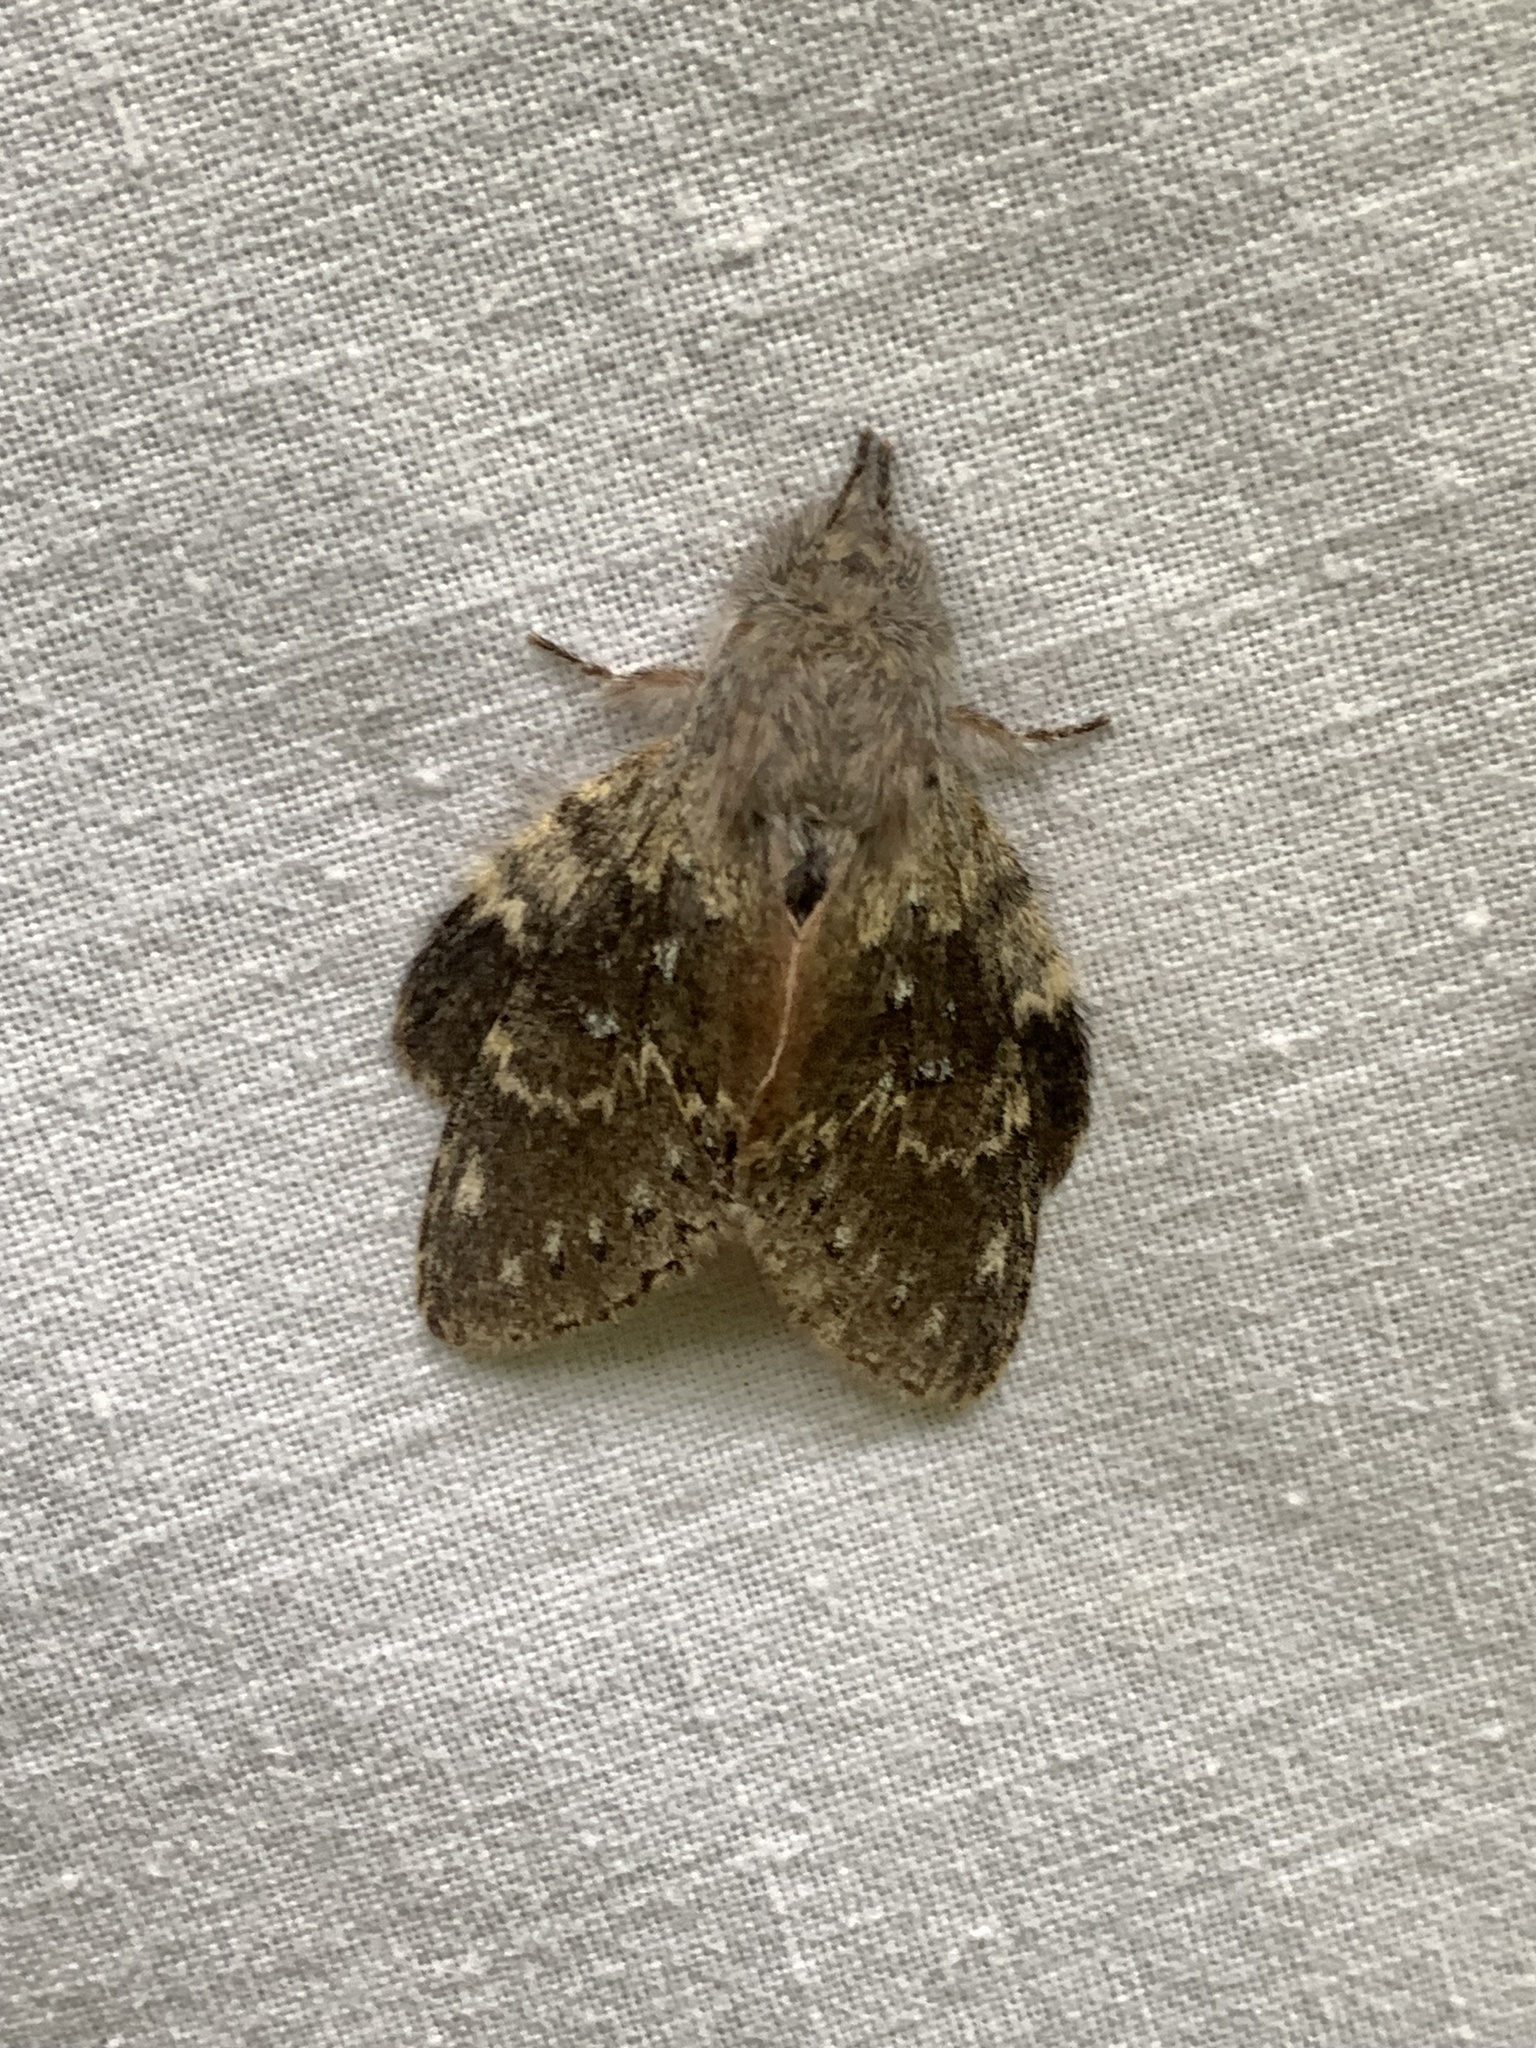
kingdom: Animalia
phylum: Arthropoda
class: Insecta
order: Lepidoptera
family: Notodontidae
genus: Stauropus
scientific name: Stauropus fagi
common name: Lobster moth
